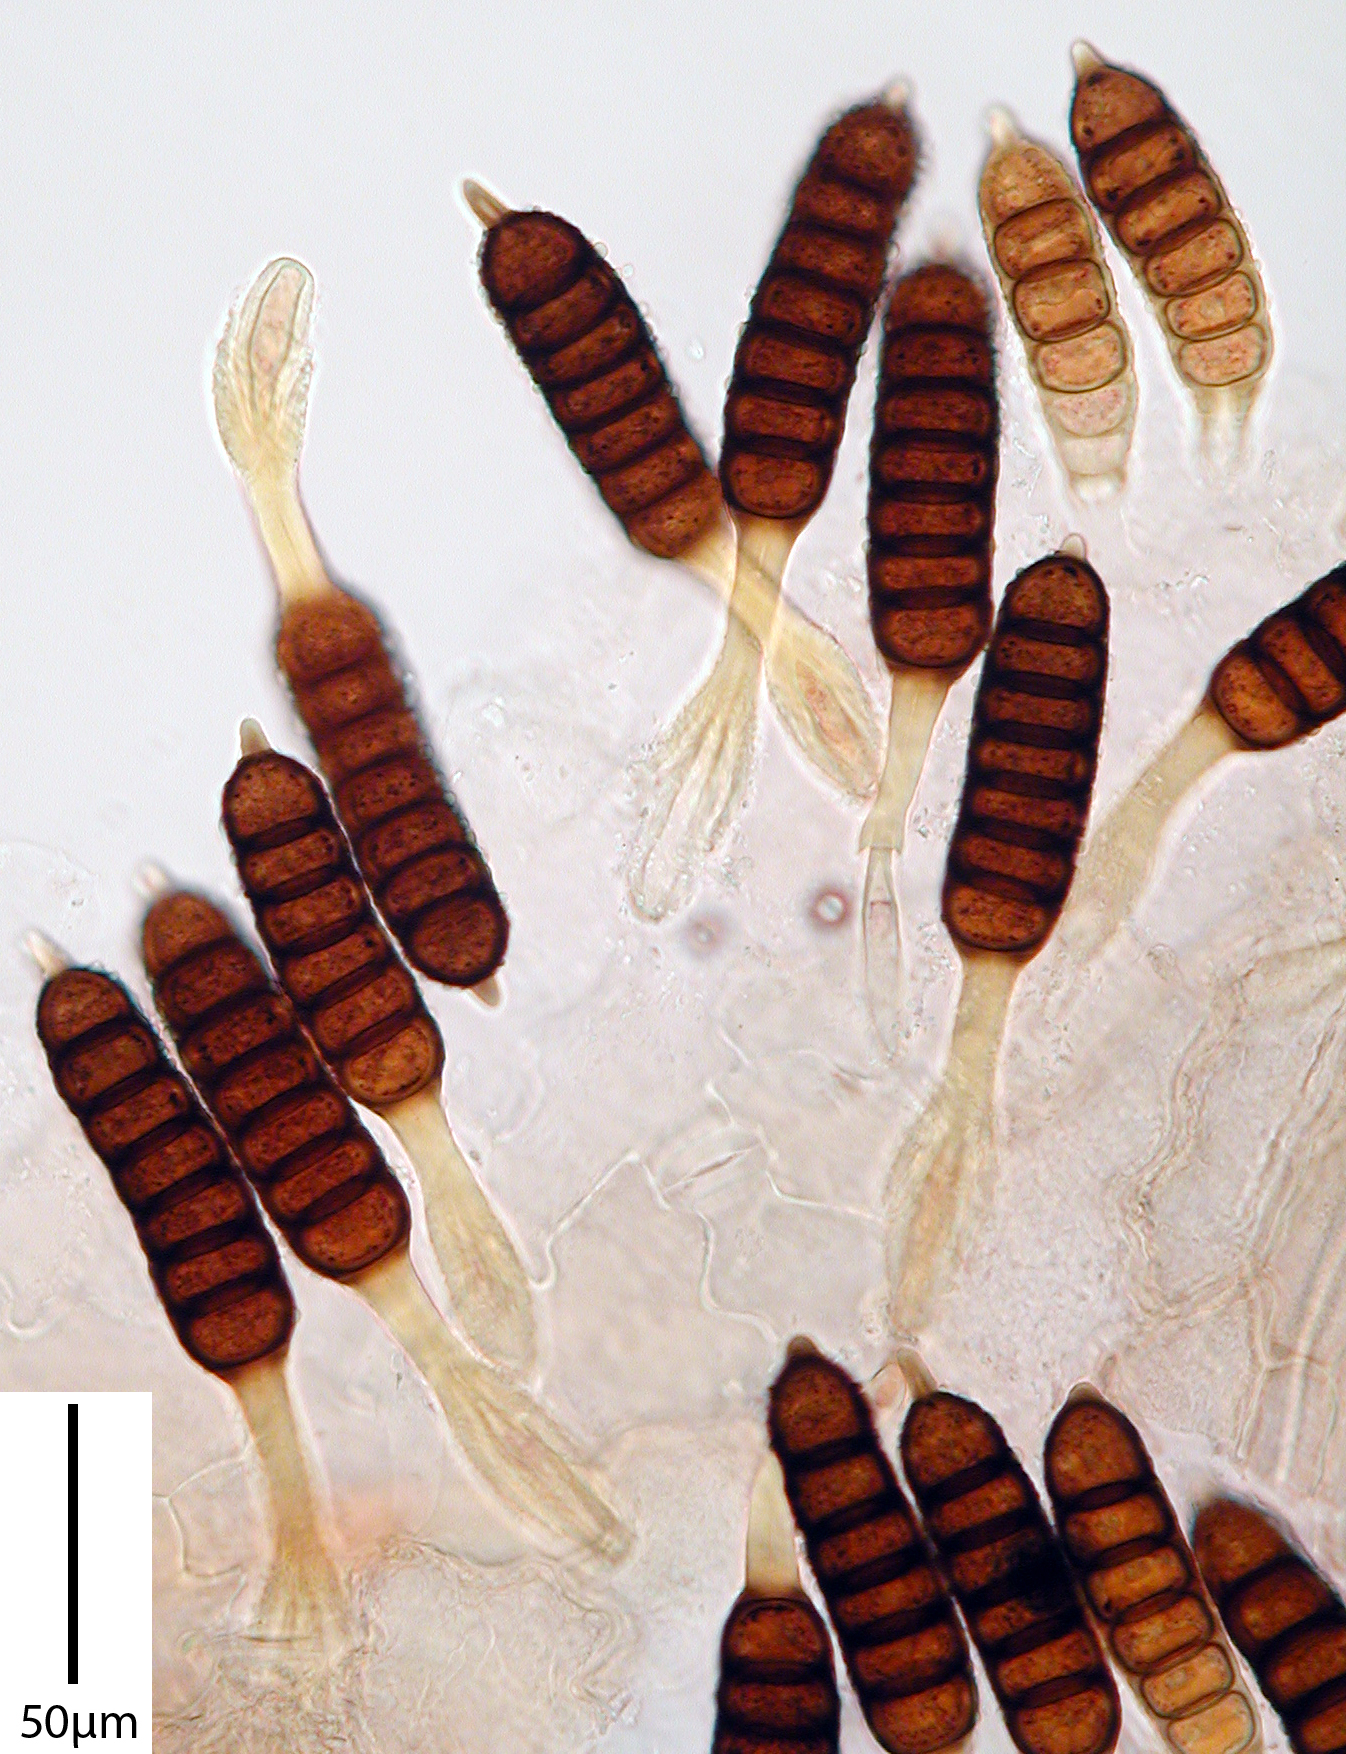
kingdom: Fungi
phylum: Basidiomycota
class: Pucciniomycetes
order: Pucciniales
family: Phragmidiaceae
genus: Phragmidium
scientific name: Phragmidium acaenae
